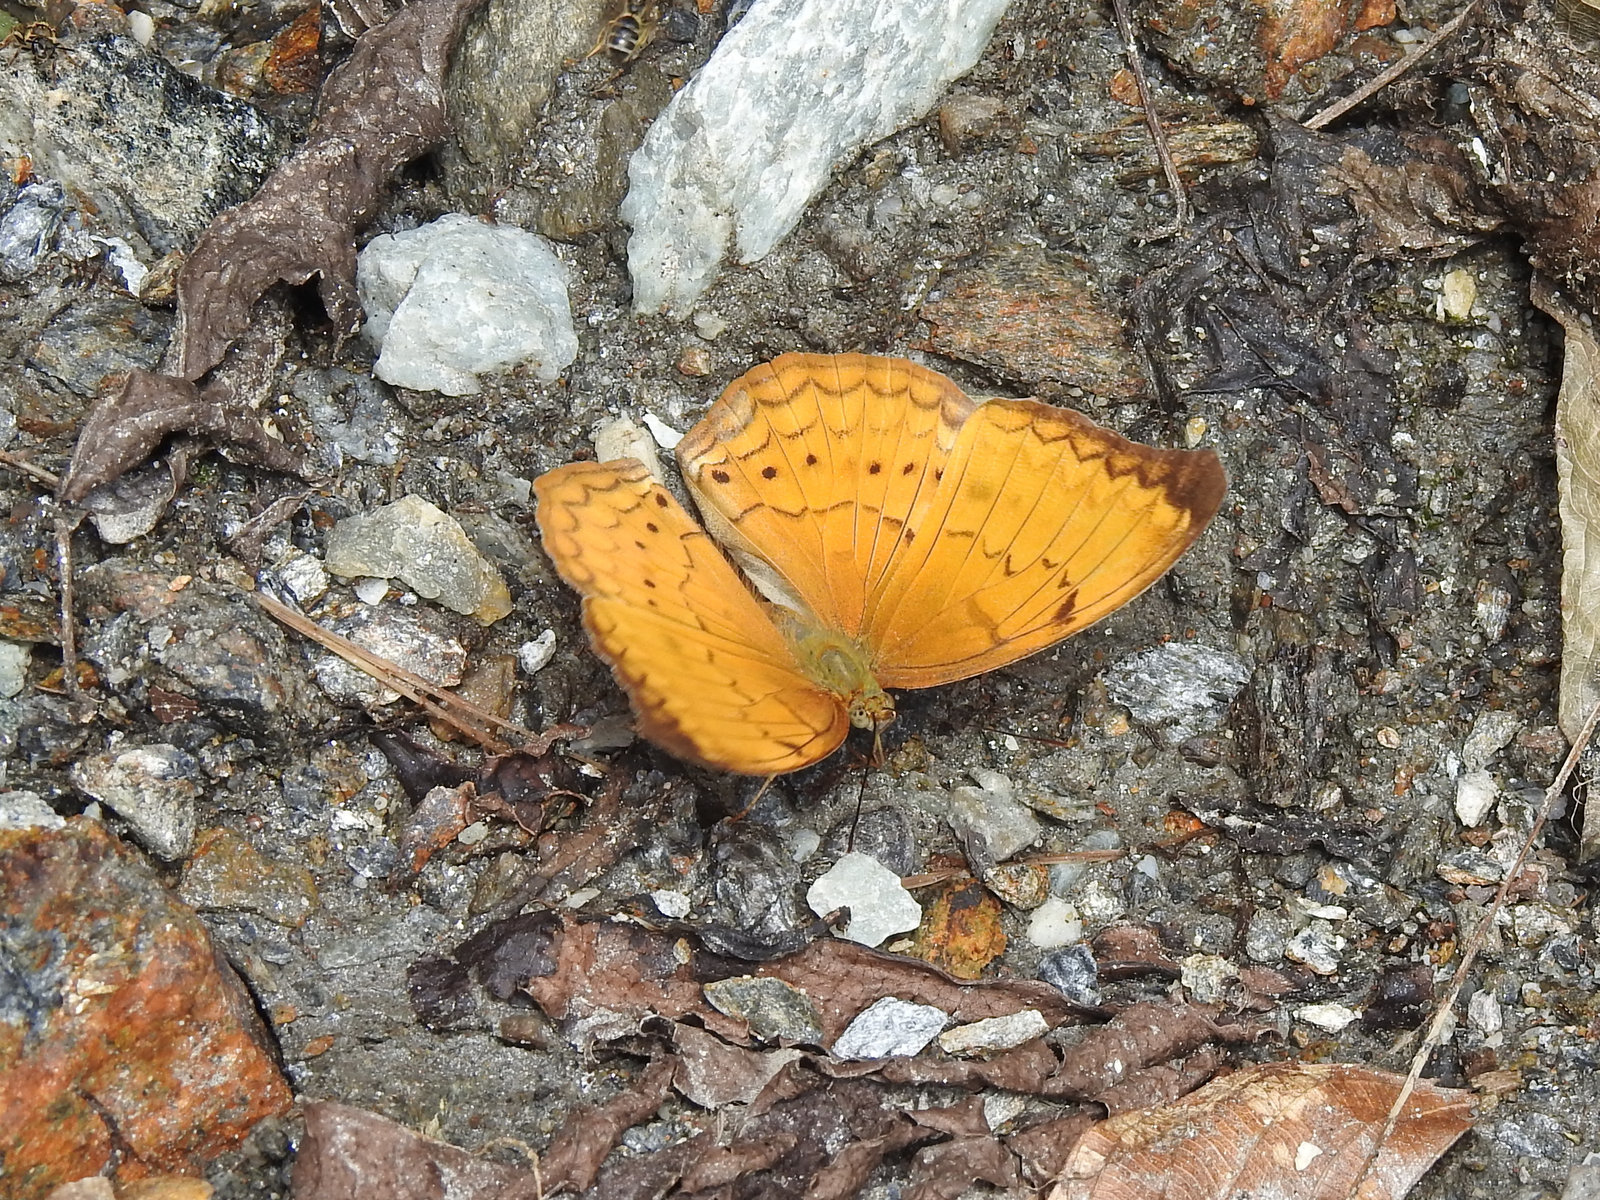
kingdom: Animalia
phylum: Arthropoda
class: Insecta
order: Lepidoptera
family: Nymphalidae
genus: Cirrochroa
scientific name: Cirrochroa aoris
